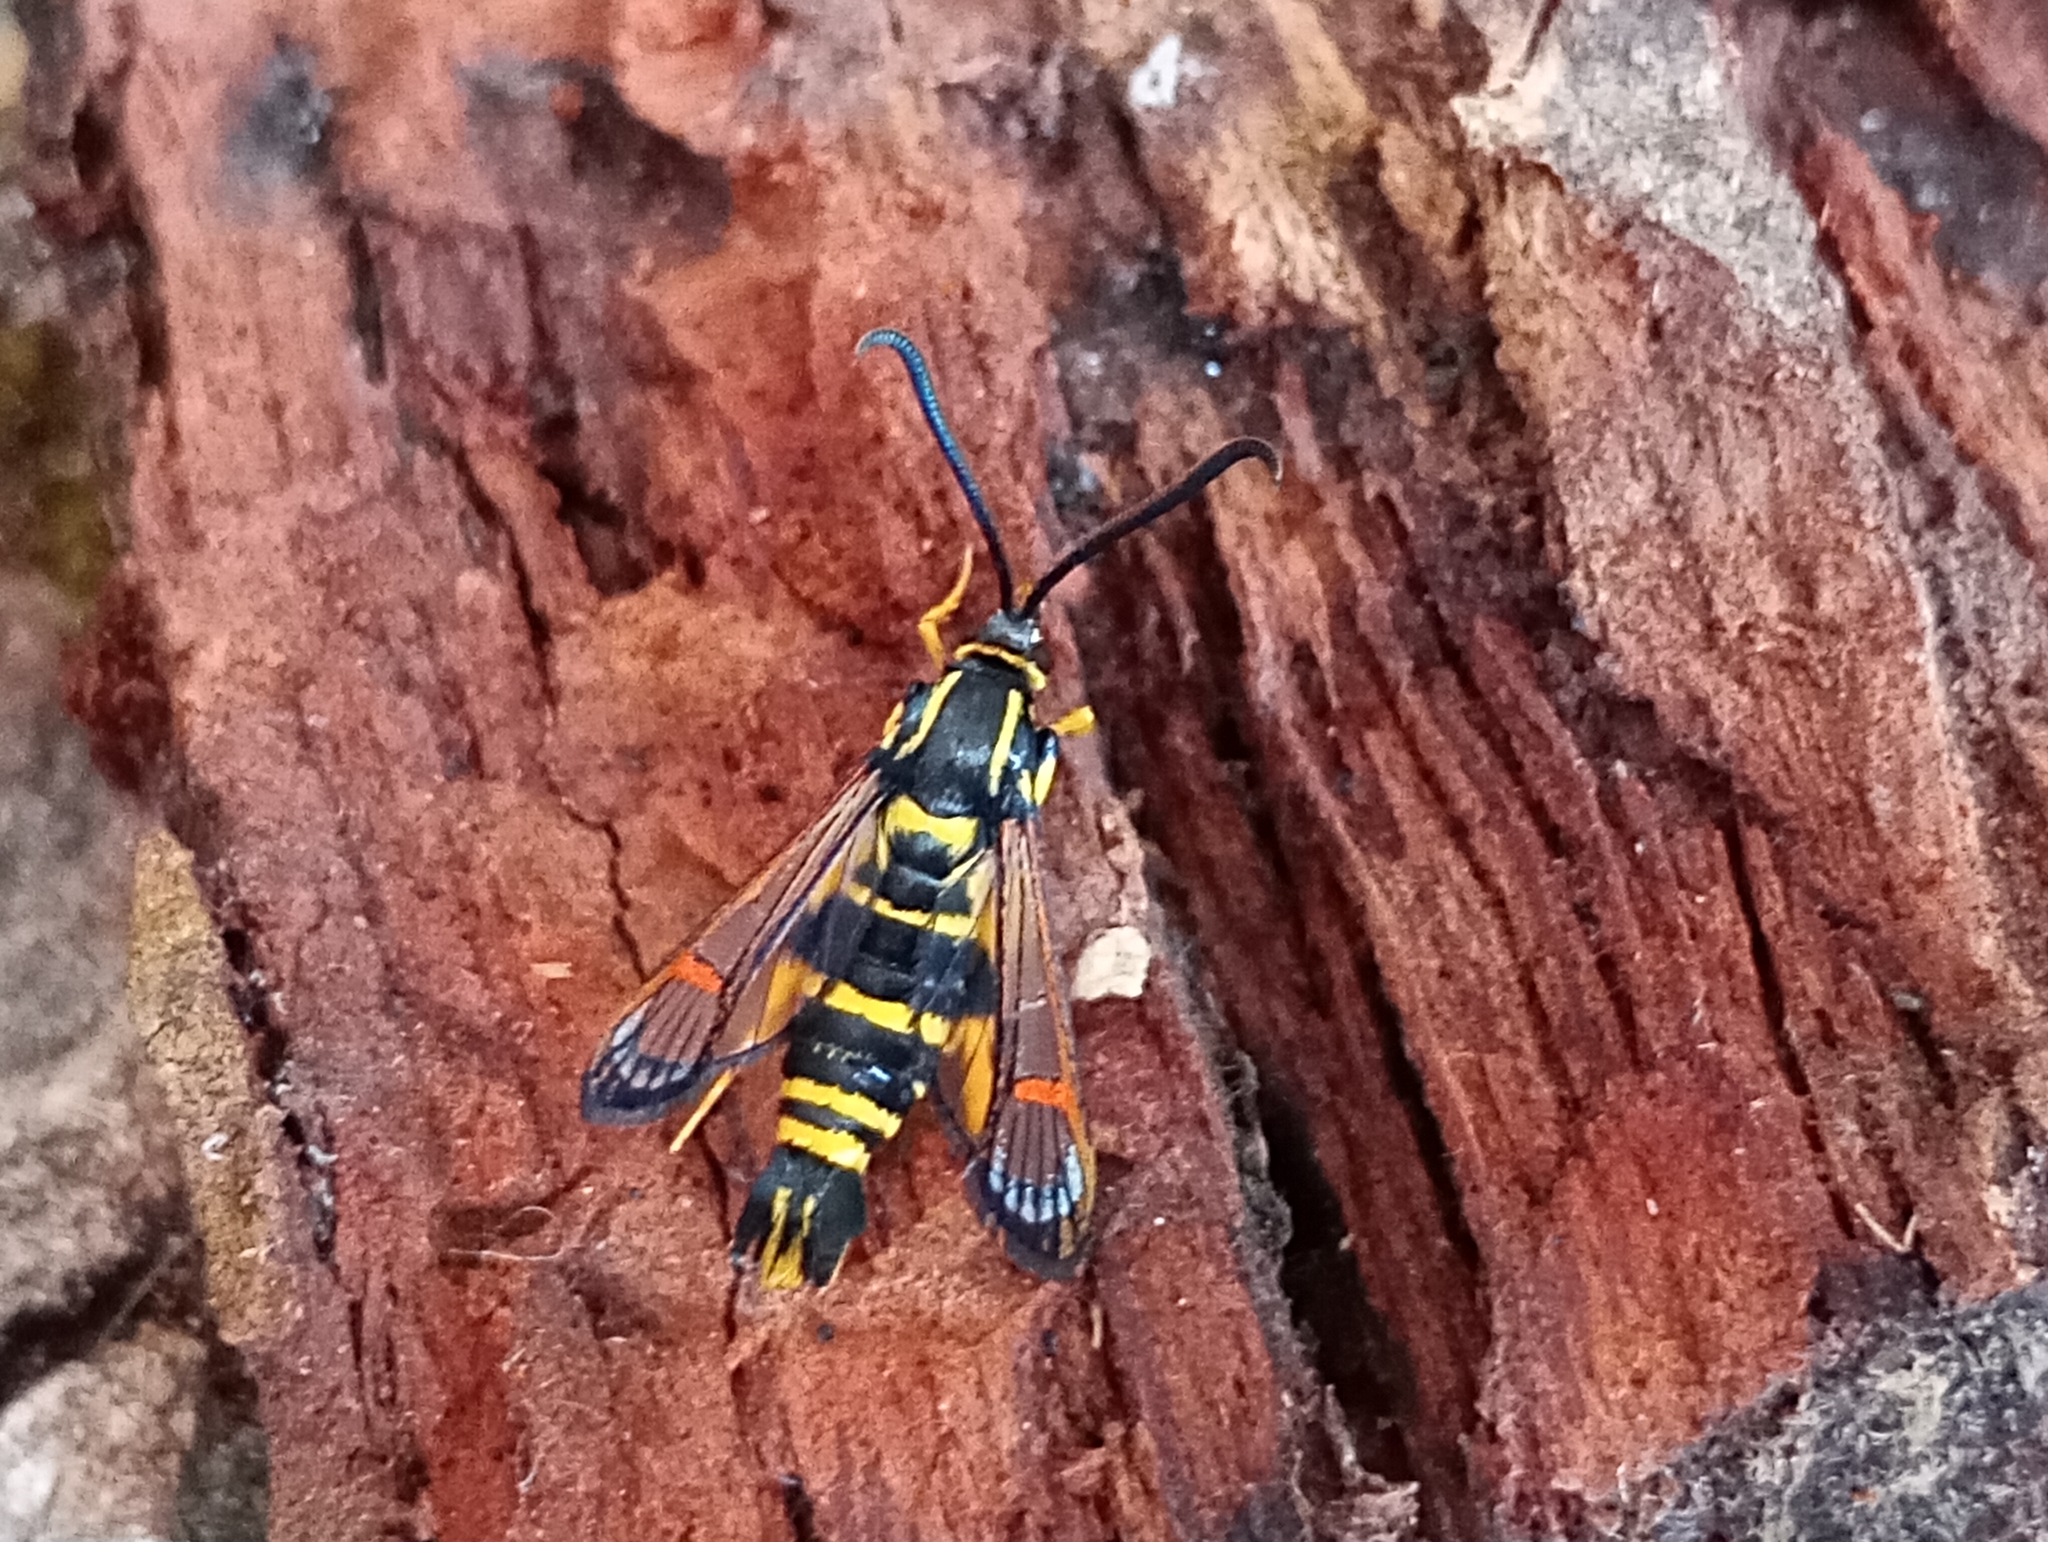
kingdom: Animalia
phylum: Arthropoda
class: Insecta
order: Lepidoptera
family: Sesiidae
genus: Synanthedon
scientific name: Synanthedon vespiformis
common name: Yellow-legged clearwing
